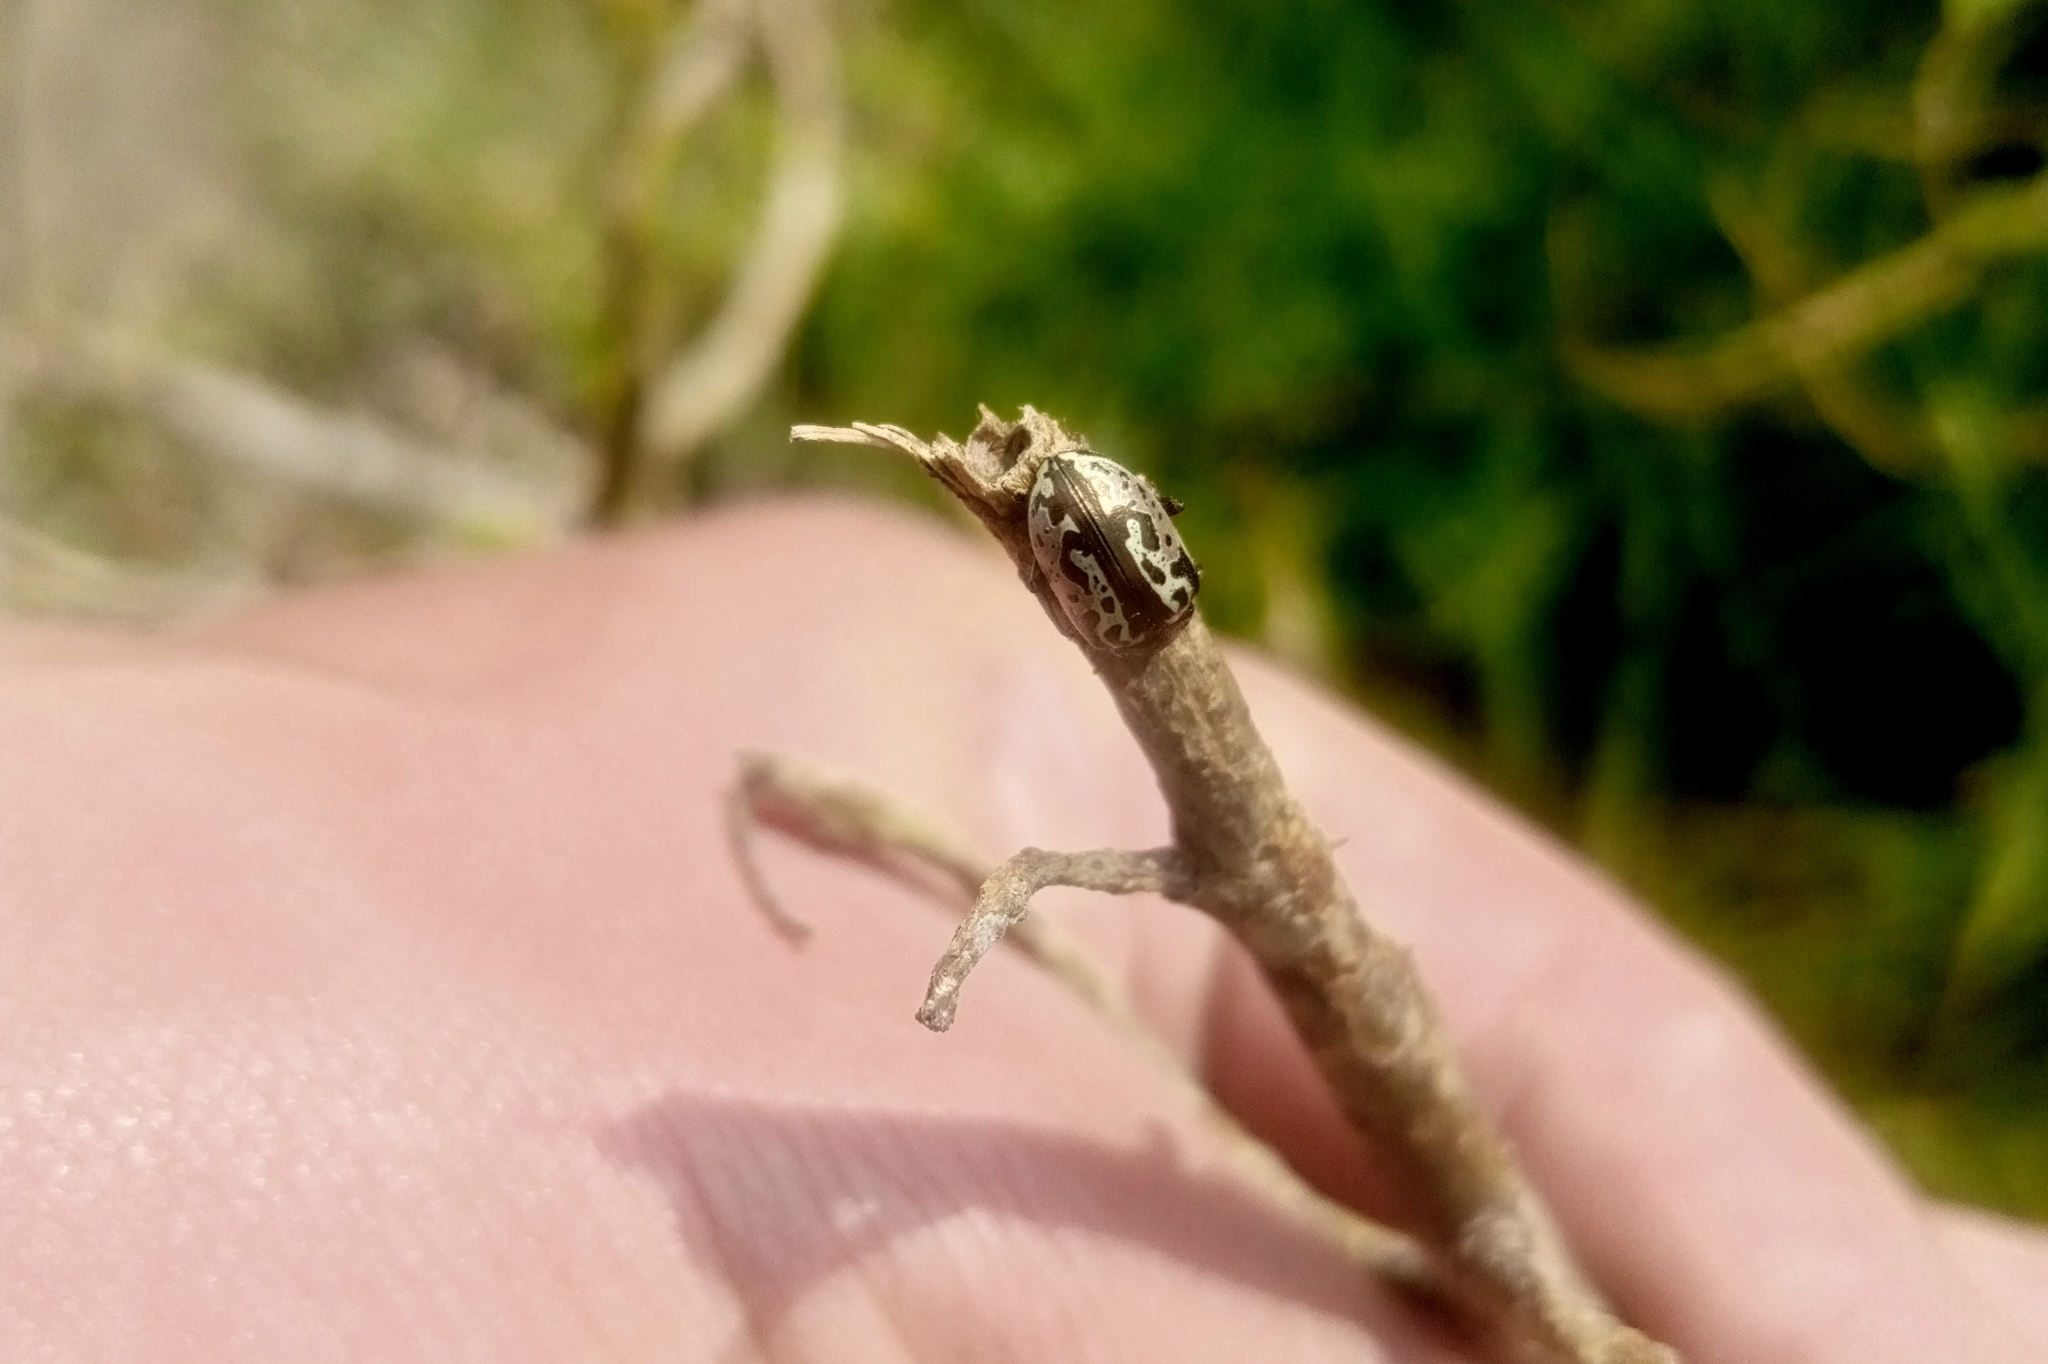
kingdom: Animalia
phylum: Arthropoda
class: Insecta
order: Coleoptera
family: Chrysomelidae
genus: Calligrapha
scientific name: Calligrapha
